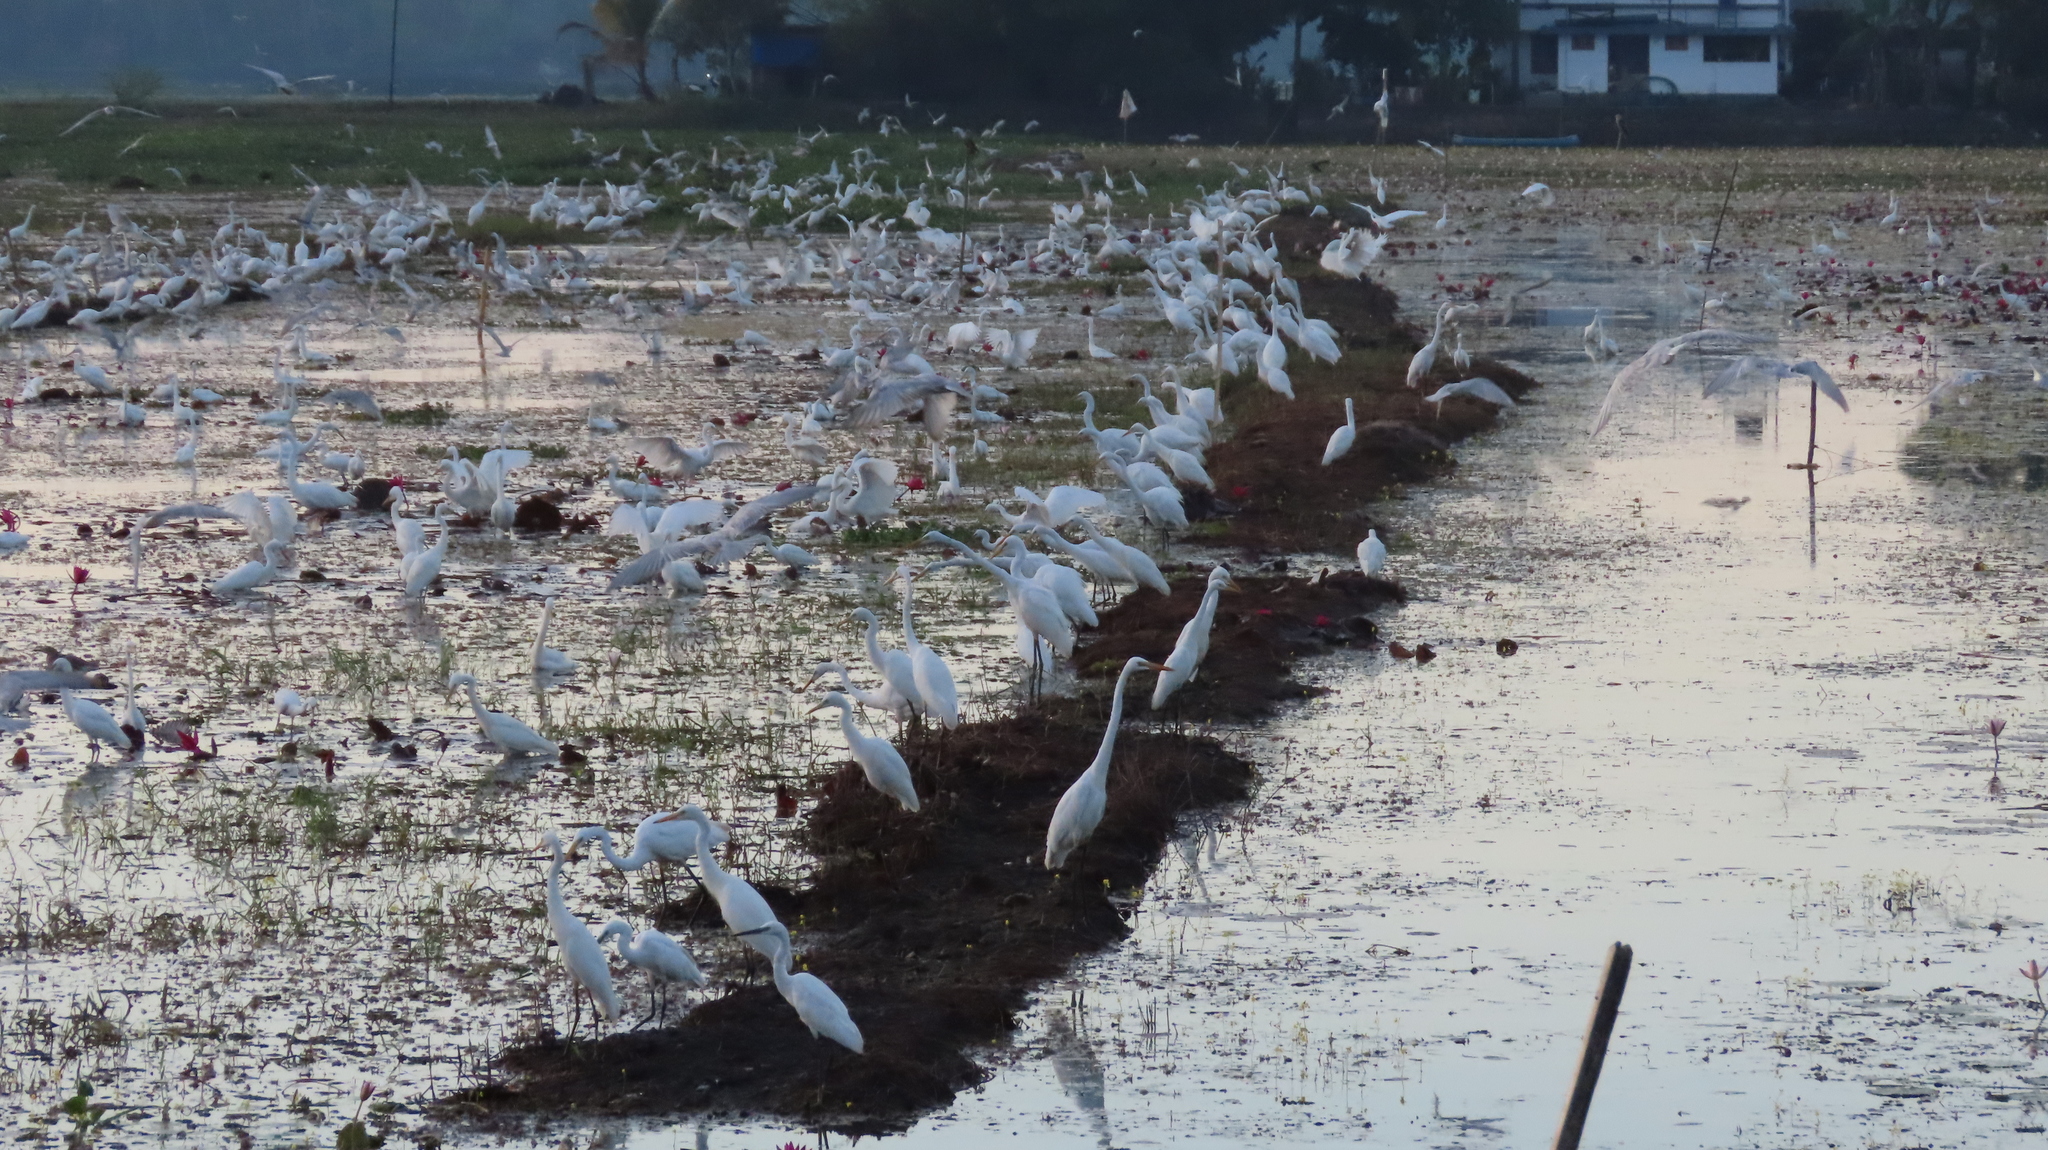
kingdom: Animalia
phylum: Chordata
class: Aves
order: Pelecaniformes
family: Ardeidae
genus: Egretta
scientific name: Egretta intermedia
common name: Intermediate egret
